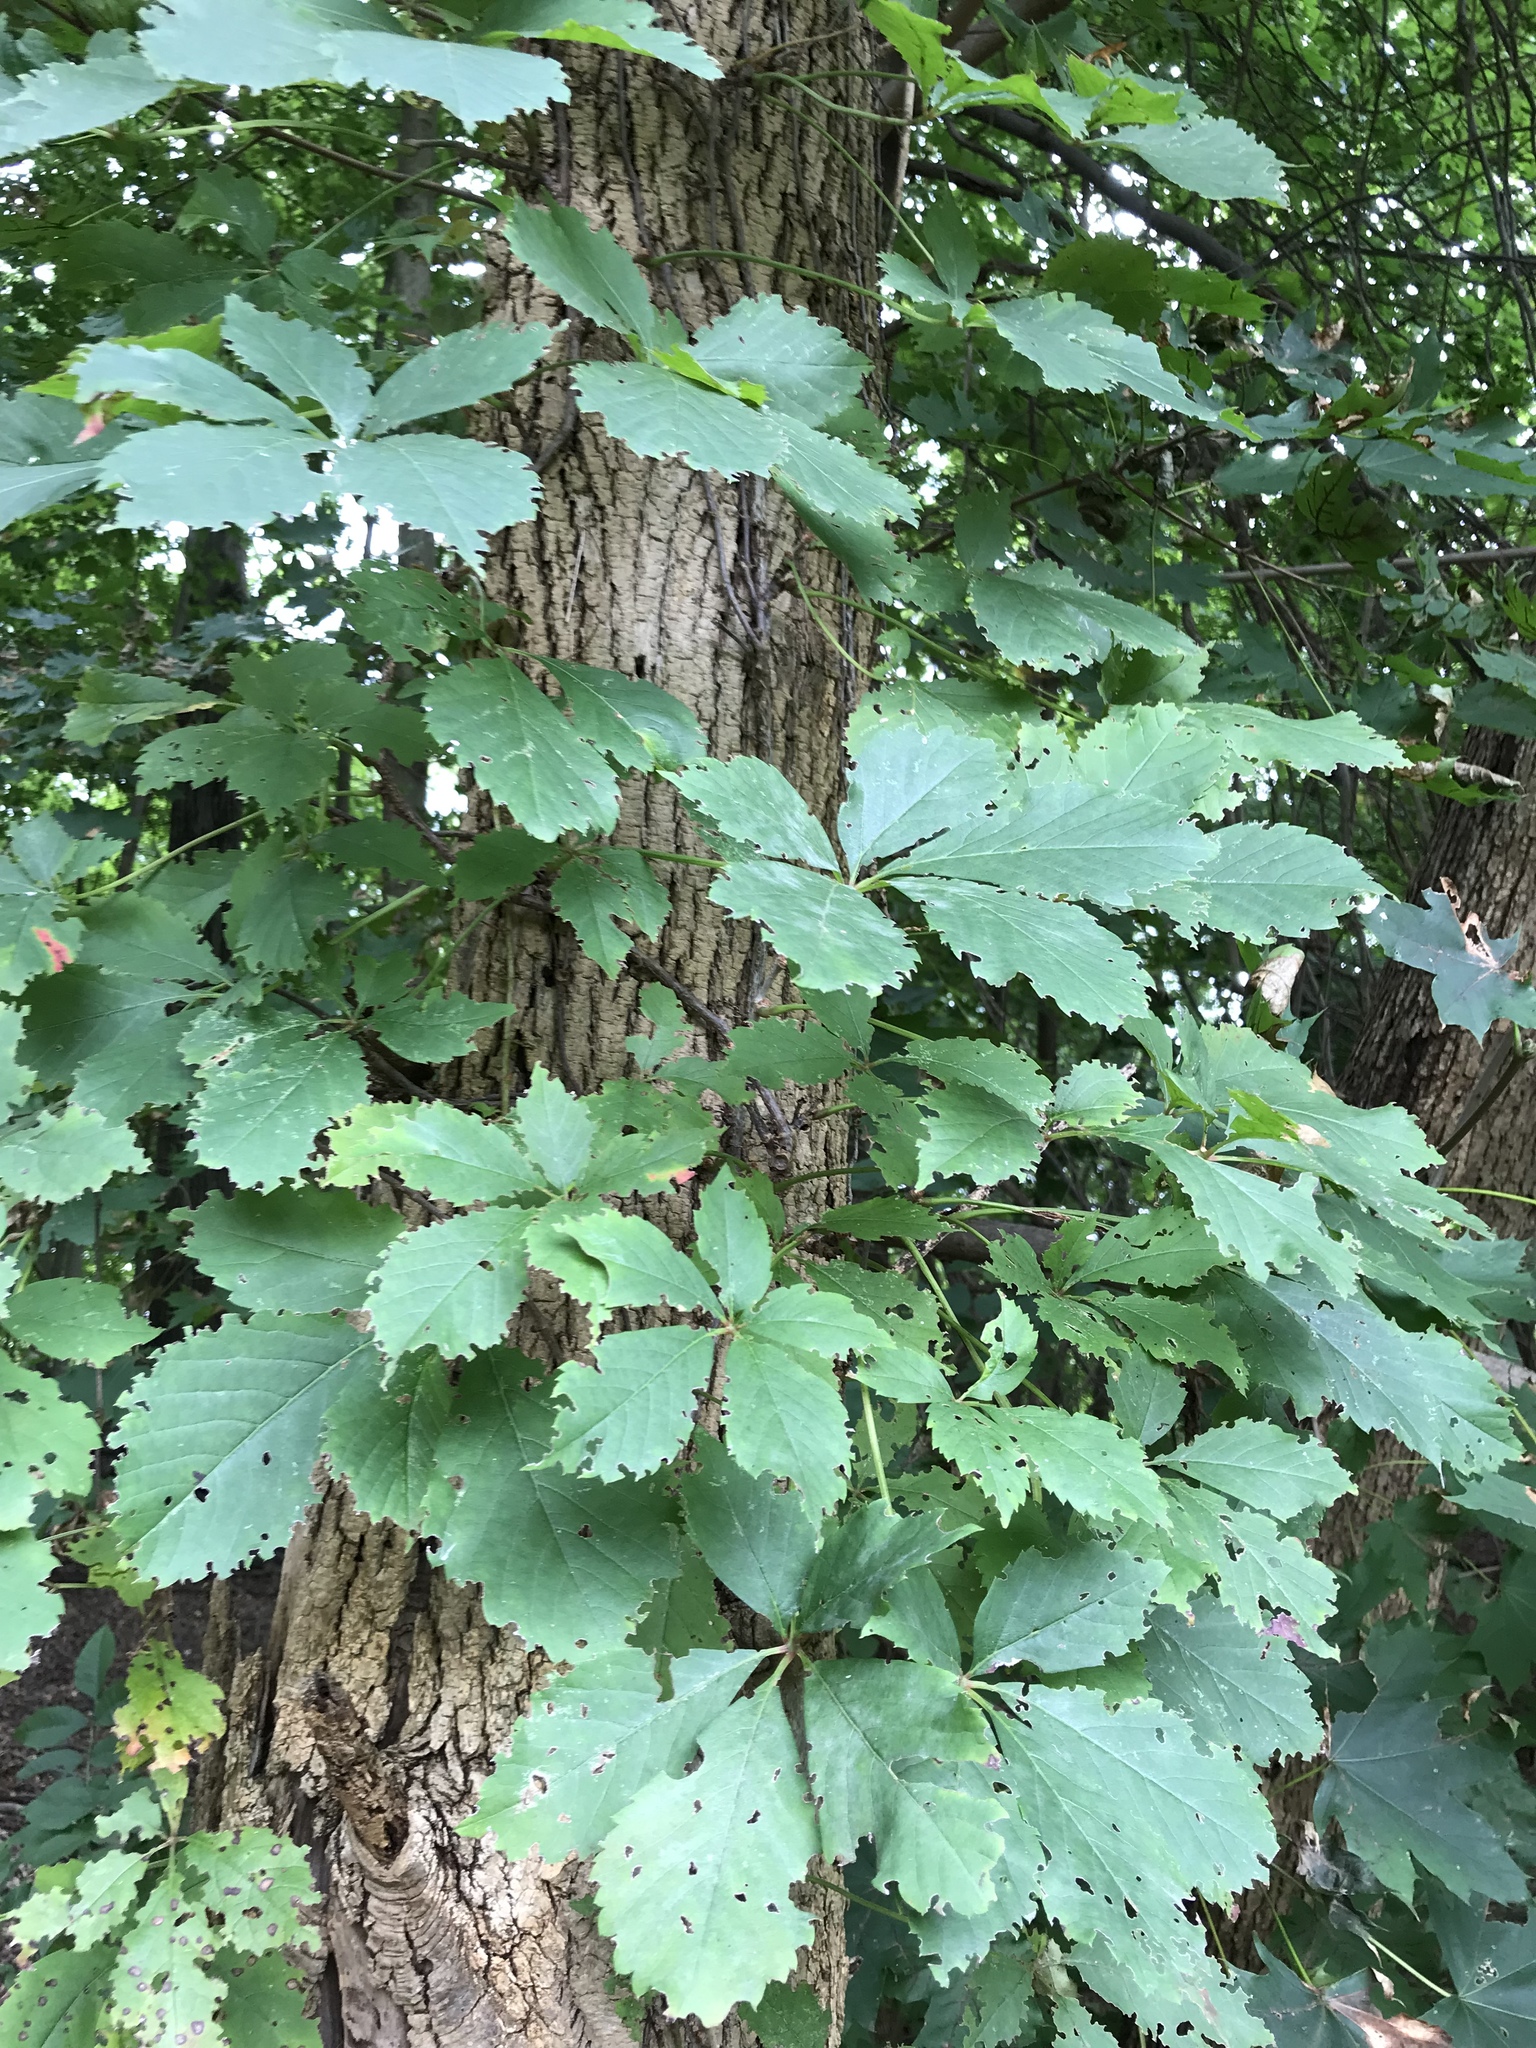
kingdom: Plantae
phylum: Tracheophyta
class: Magnoliopsida
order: Vitales
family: Vitaceae
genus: Parthenocissus
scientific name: Parthenocissus quinquefolia
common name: Virginia-creeper
